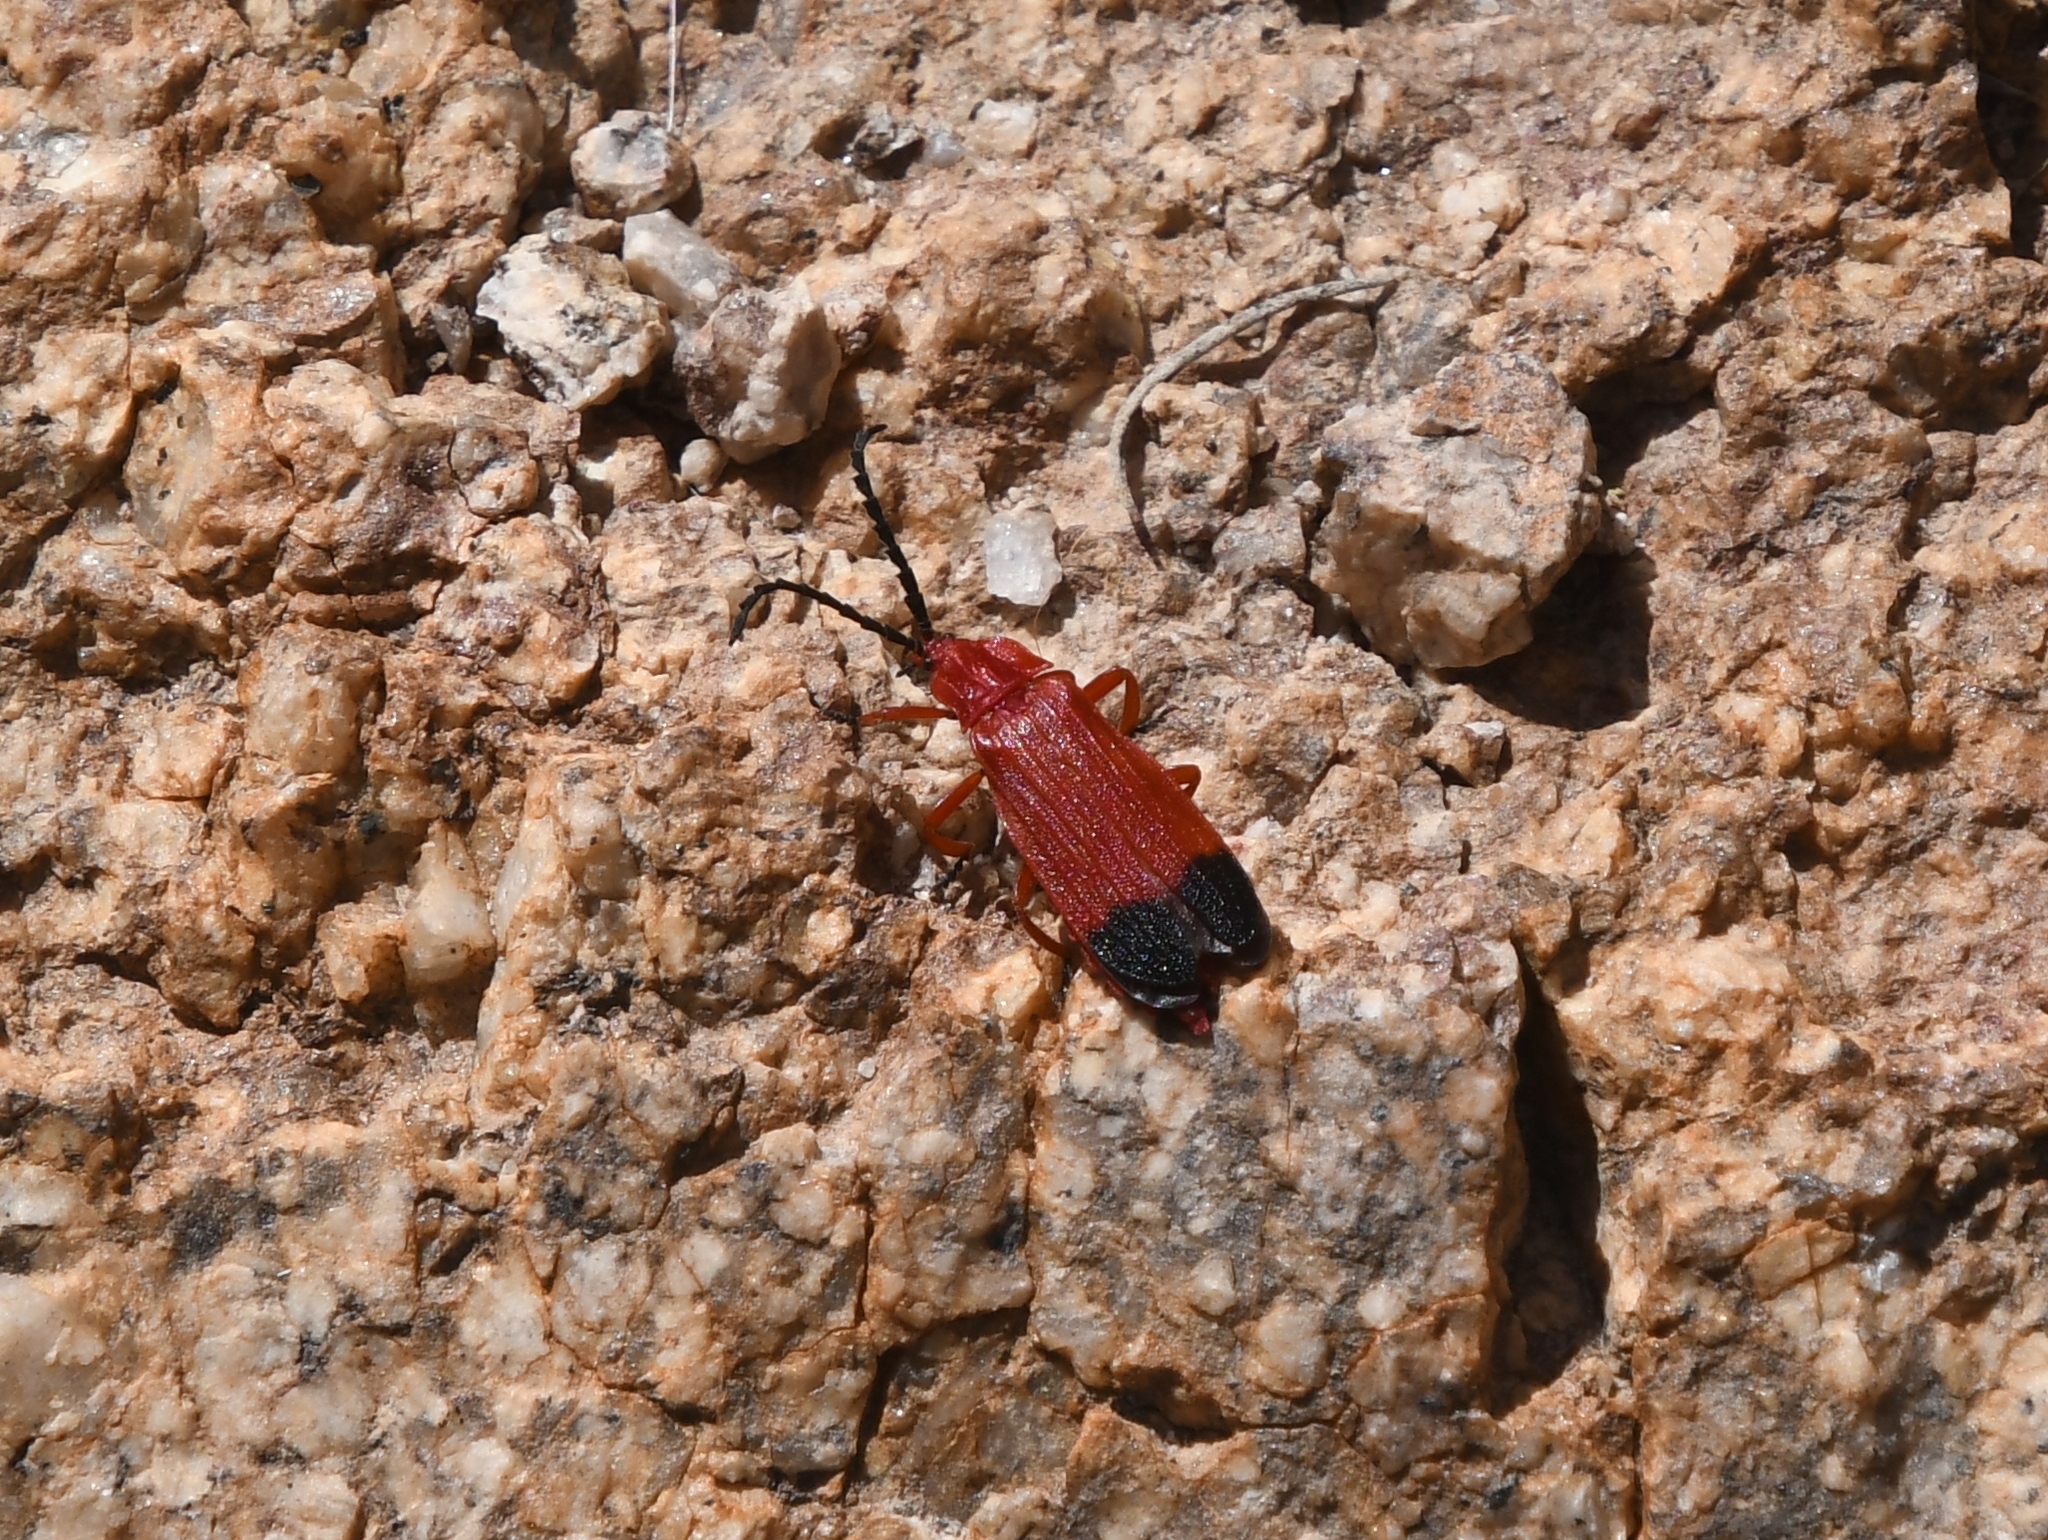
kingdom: Animalia
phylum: Arthropoda
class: Insecta
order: Coleoptera
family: Lycidae
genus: Lycus
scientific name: Lycus sanguineus
